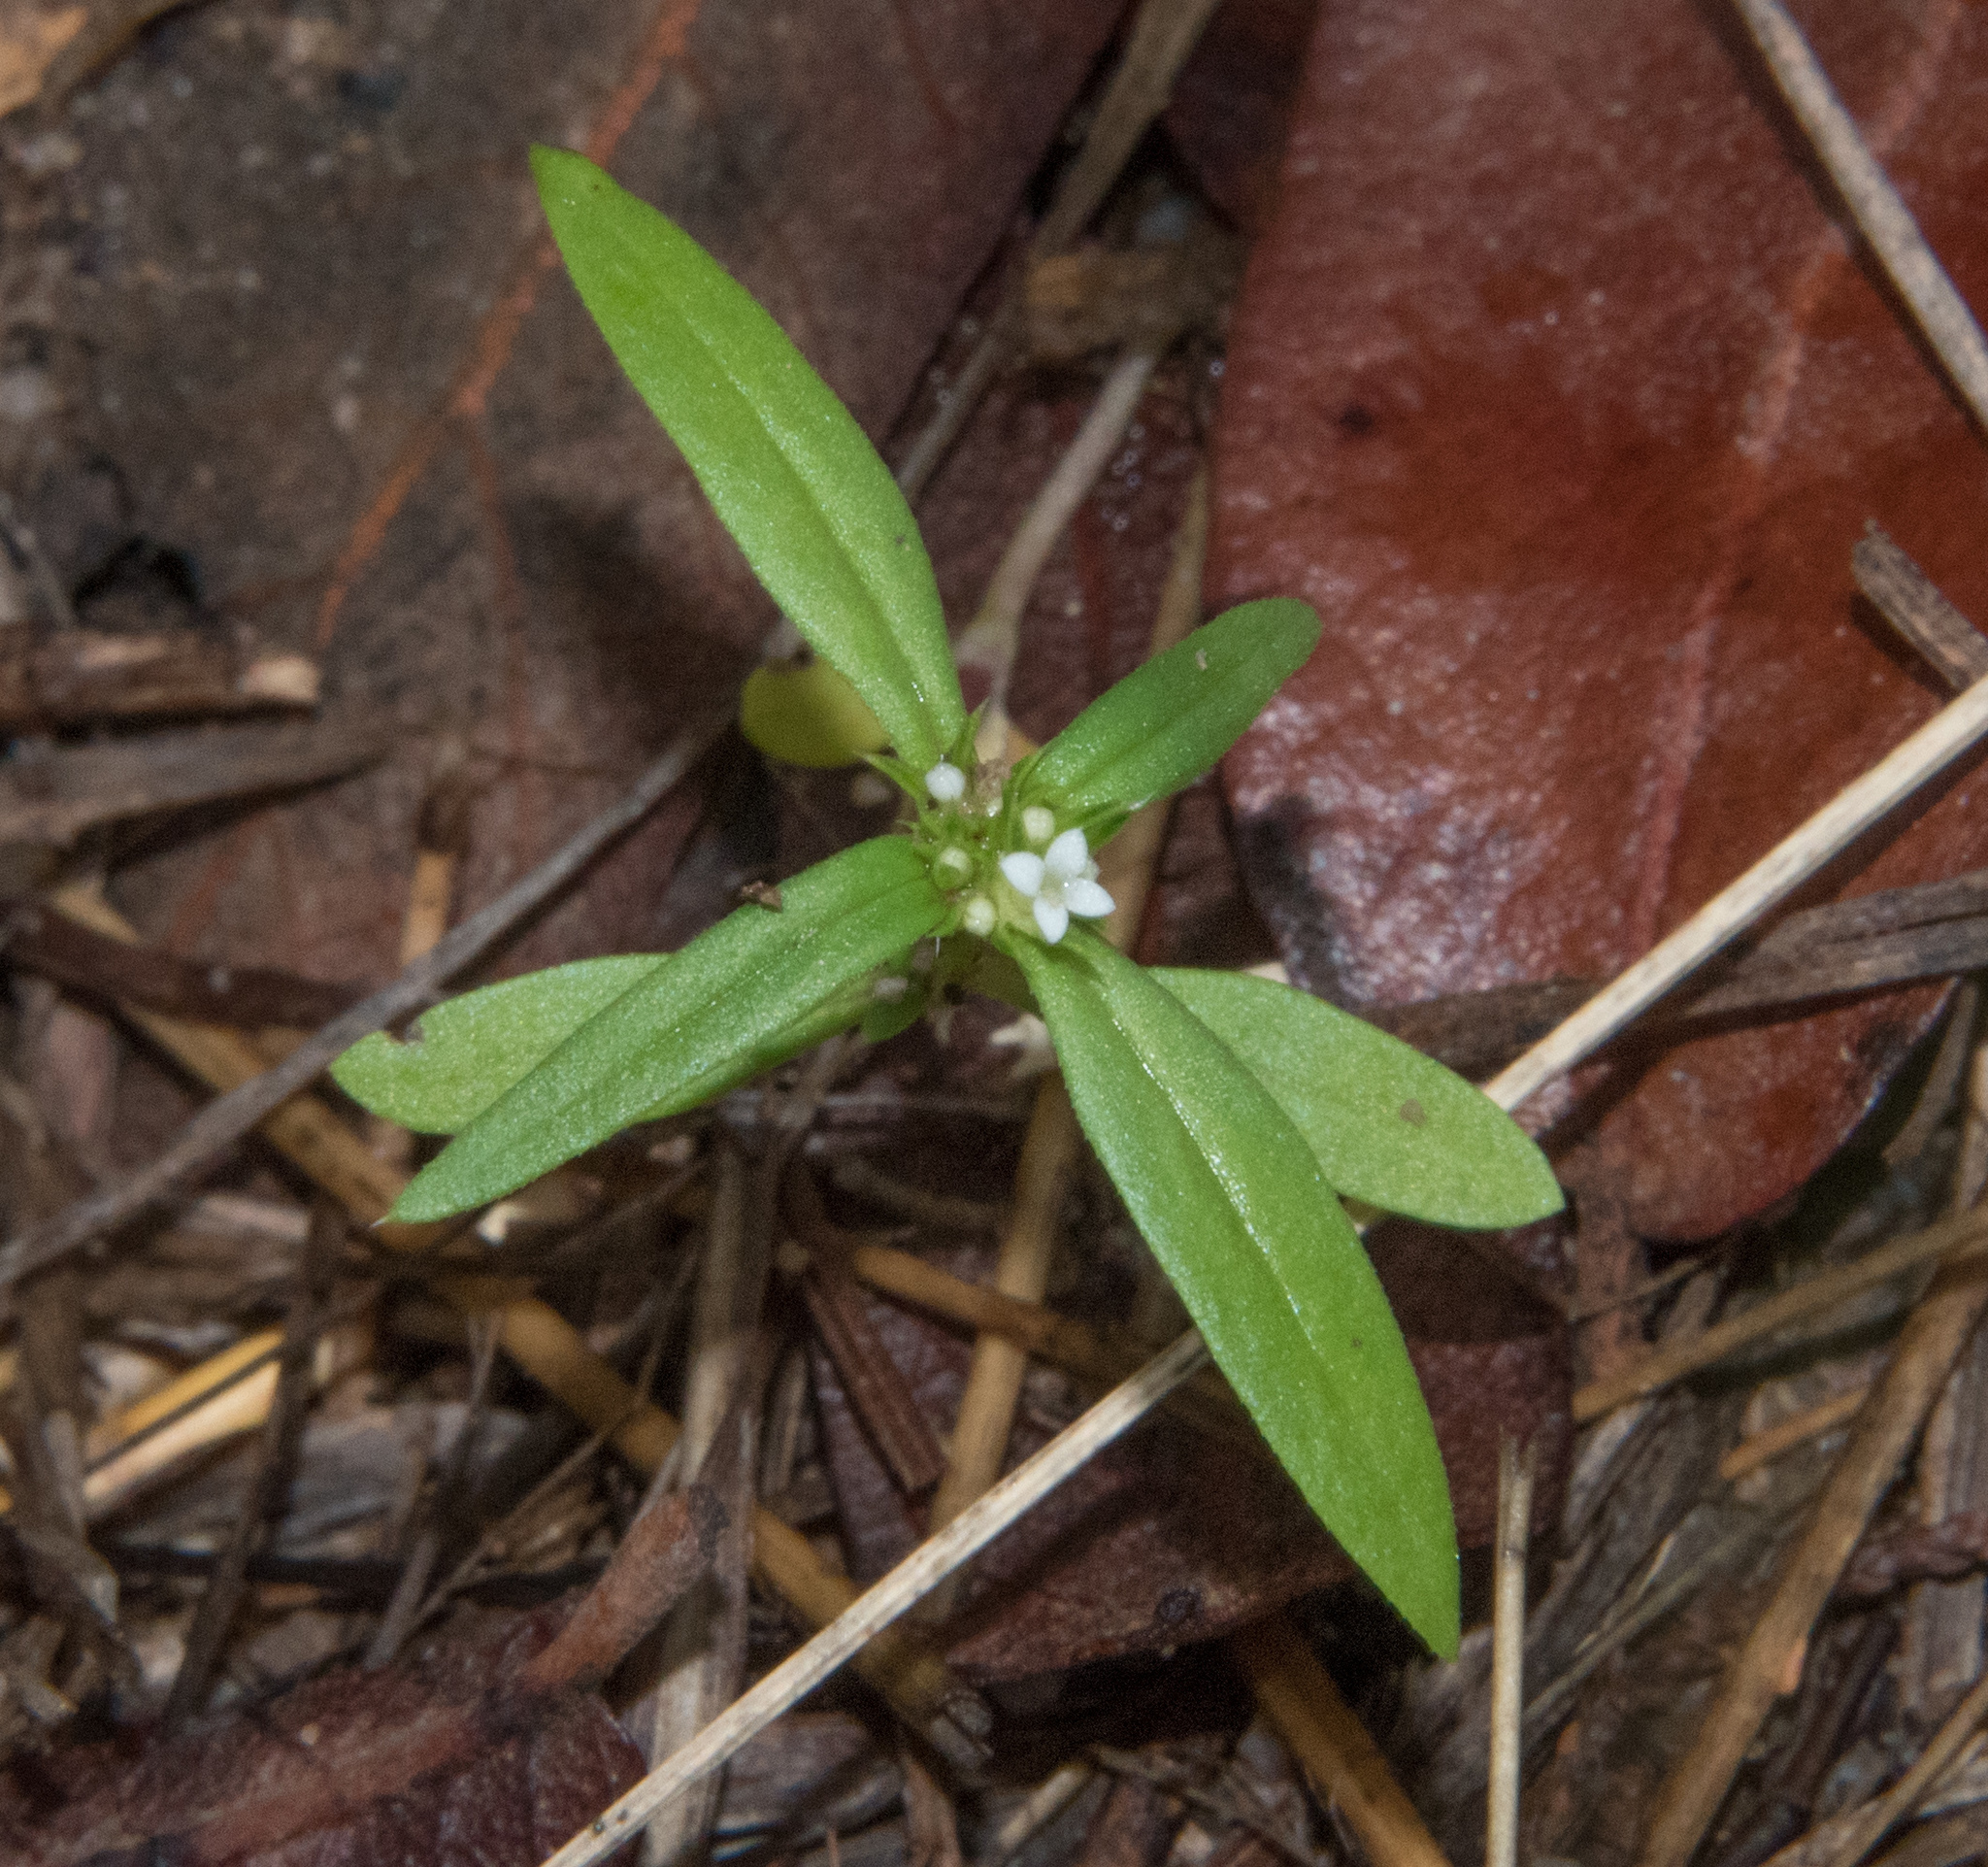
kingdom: Plantae
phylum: Tracheophyta
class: Magnoliopsida
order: Gentianales
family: Rubiaceae
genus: Hexasepalum
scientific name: Hexasepalum teres
